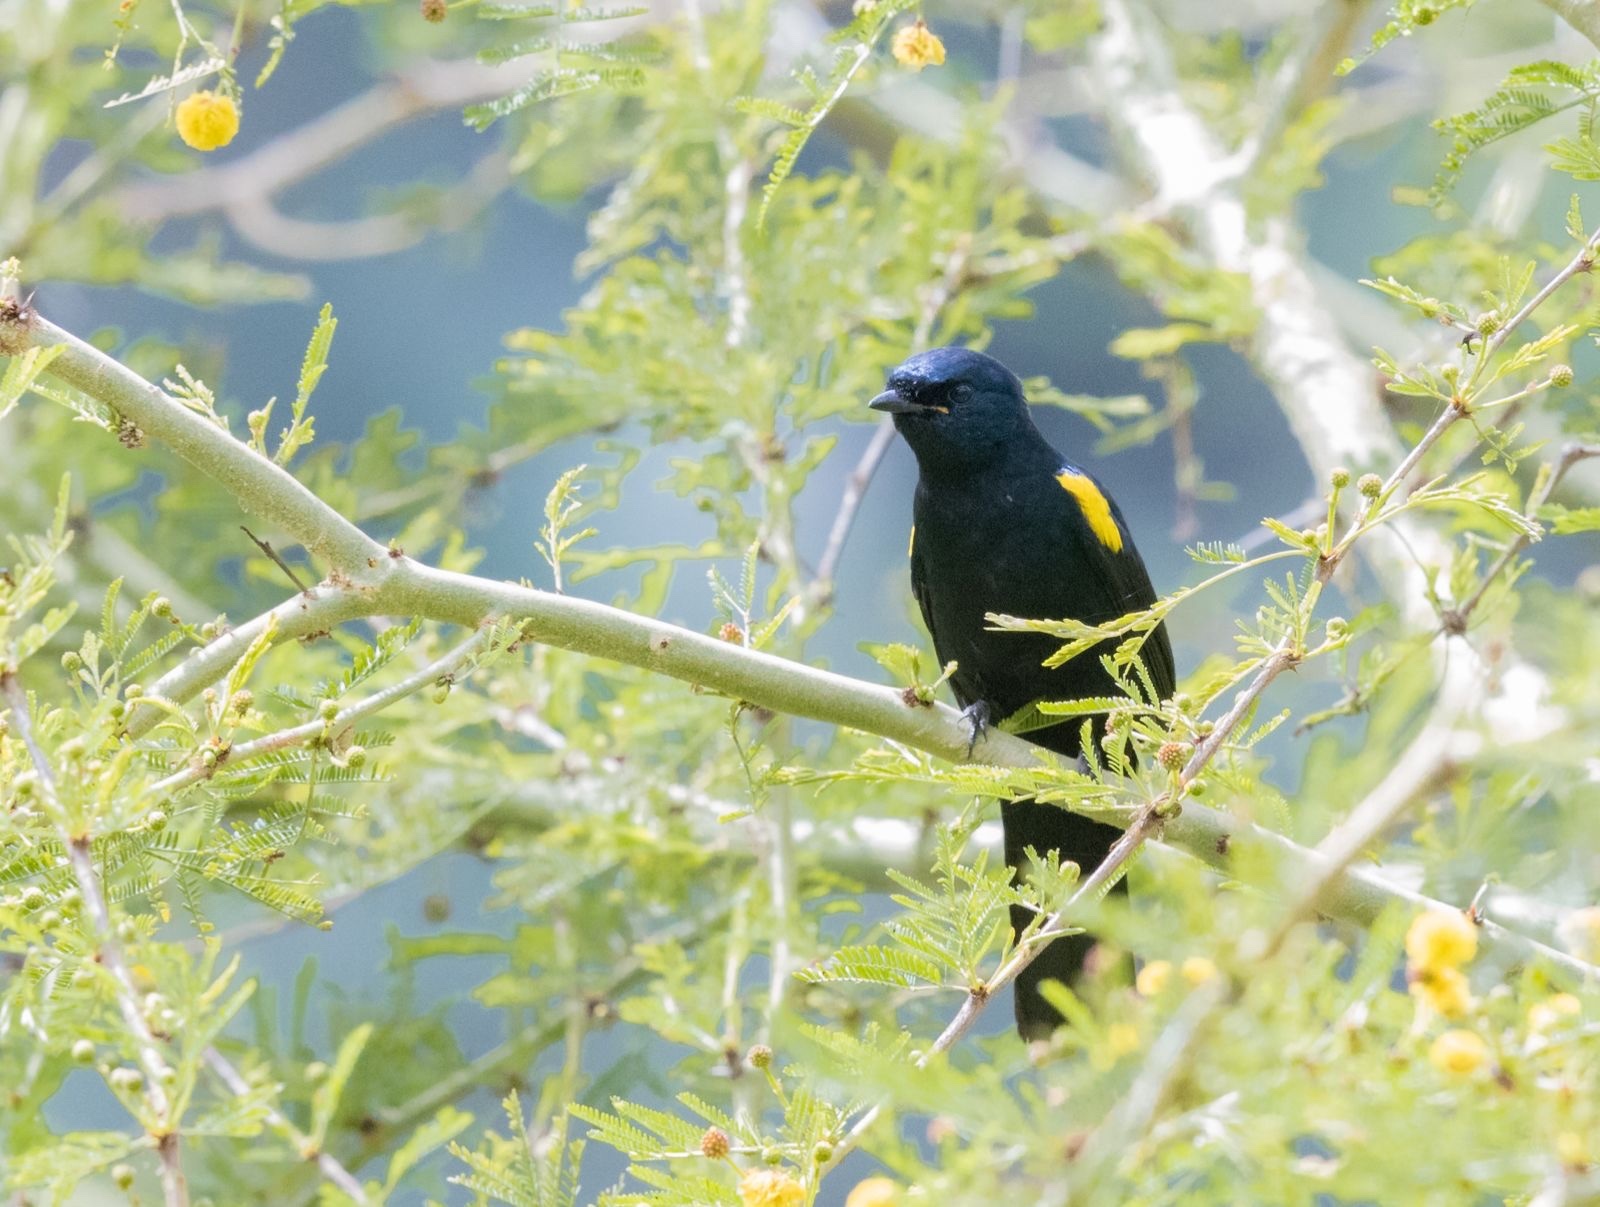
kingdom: Animalia
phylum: Chordata
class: Aves
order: Passeriformes
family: Campephagidae
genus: Campephaga
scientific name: Campephaga flava
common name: Black cuckooshrike
